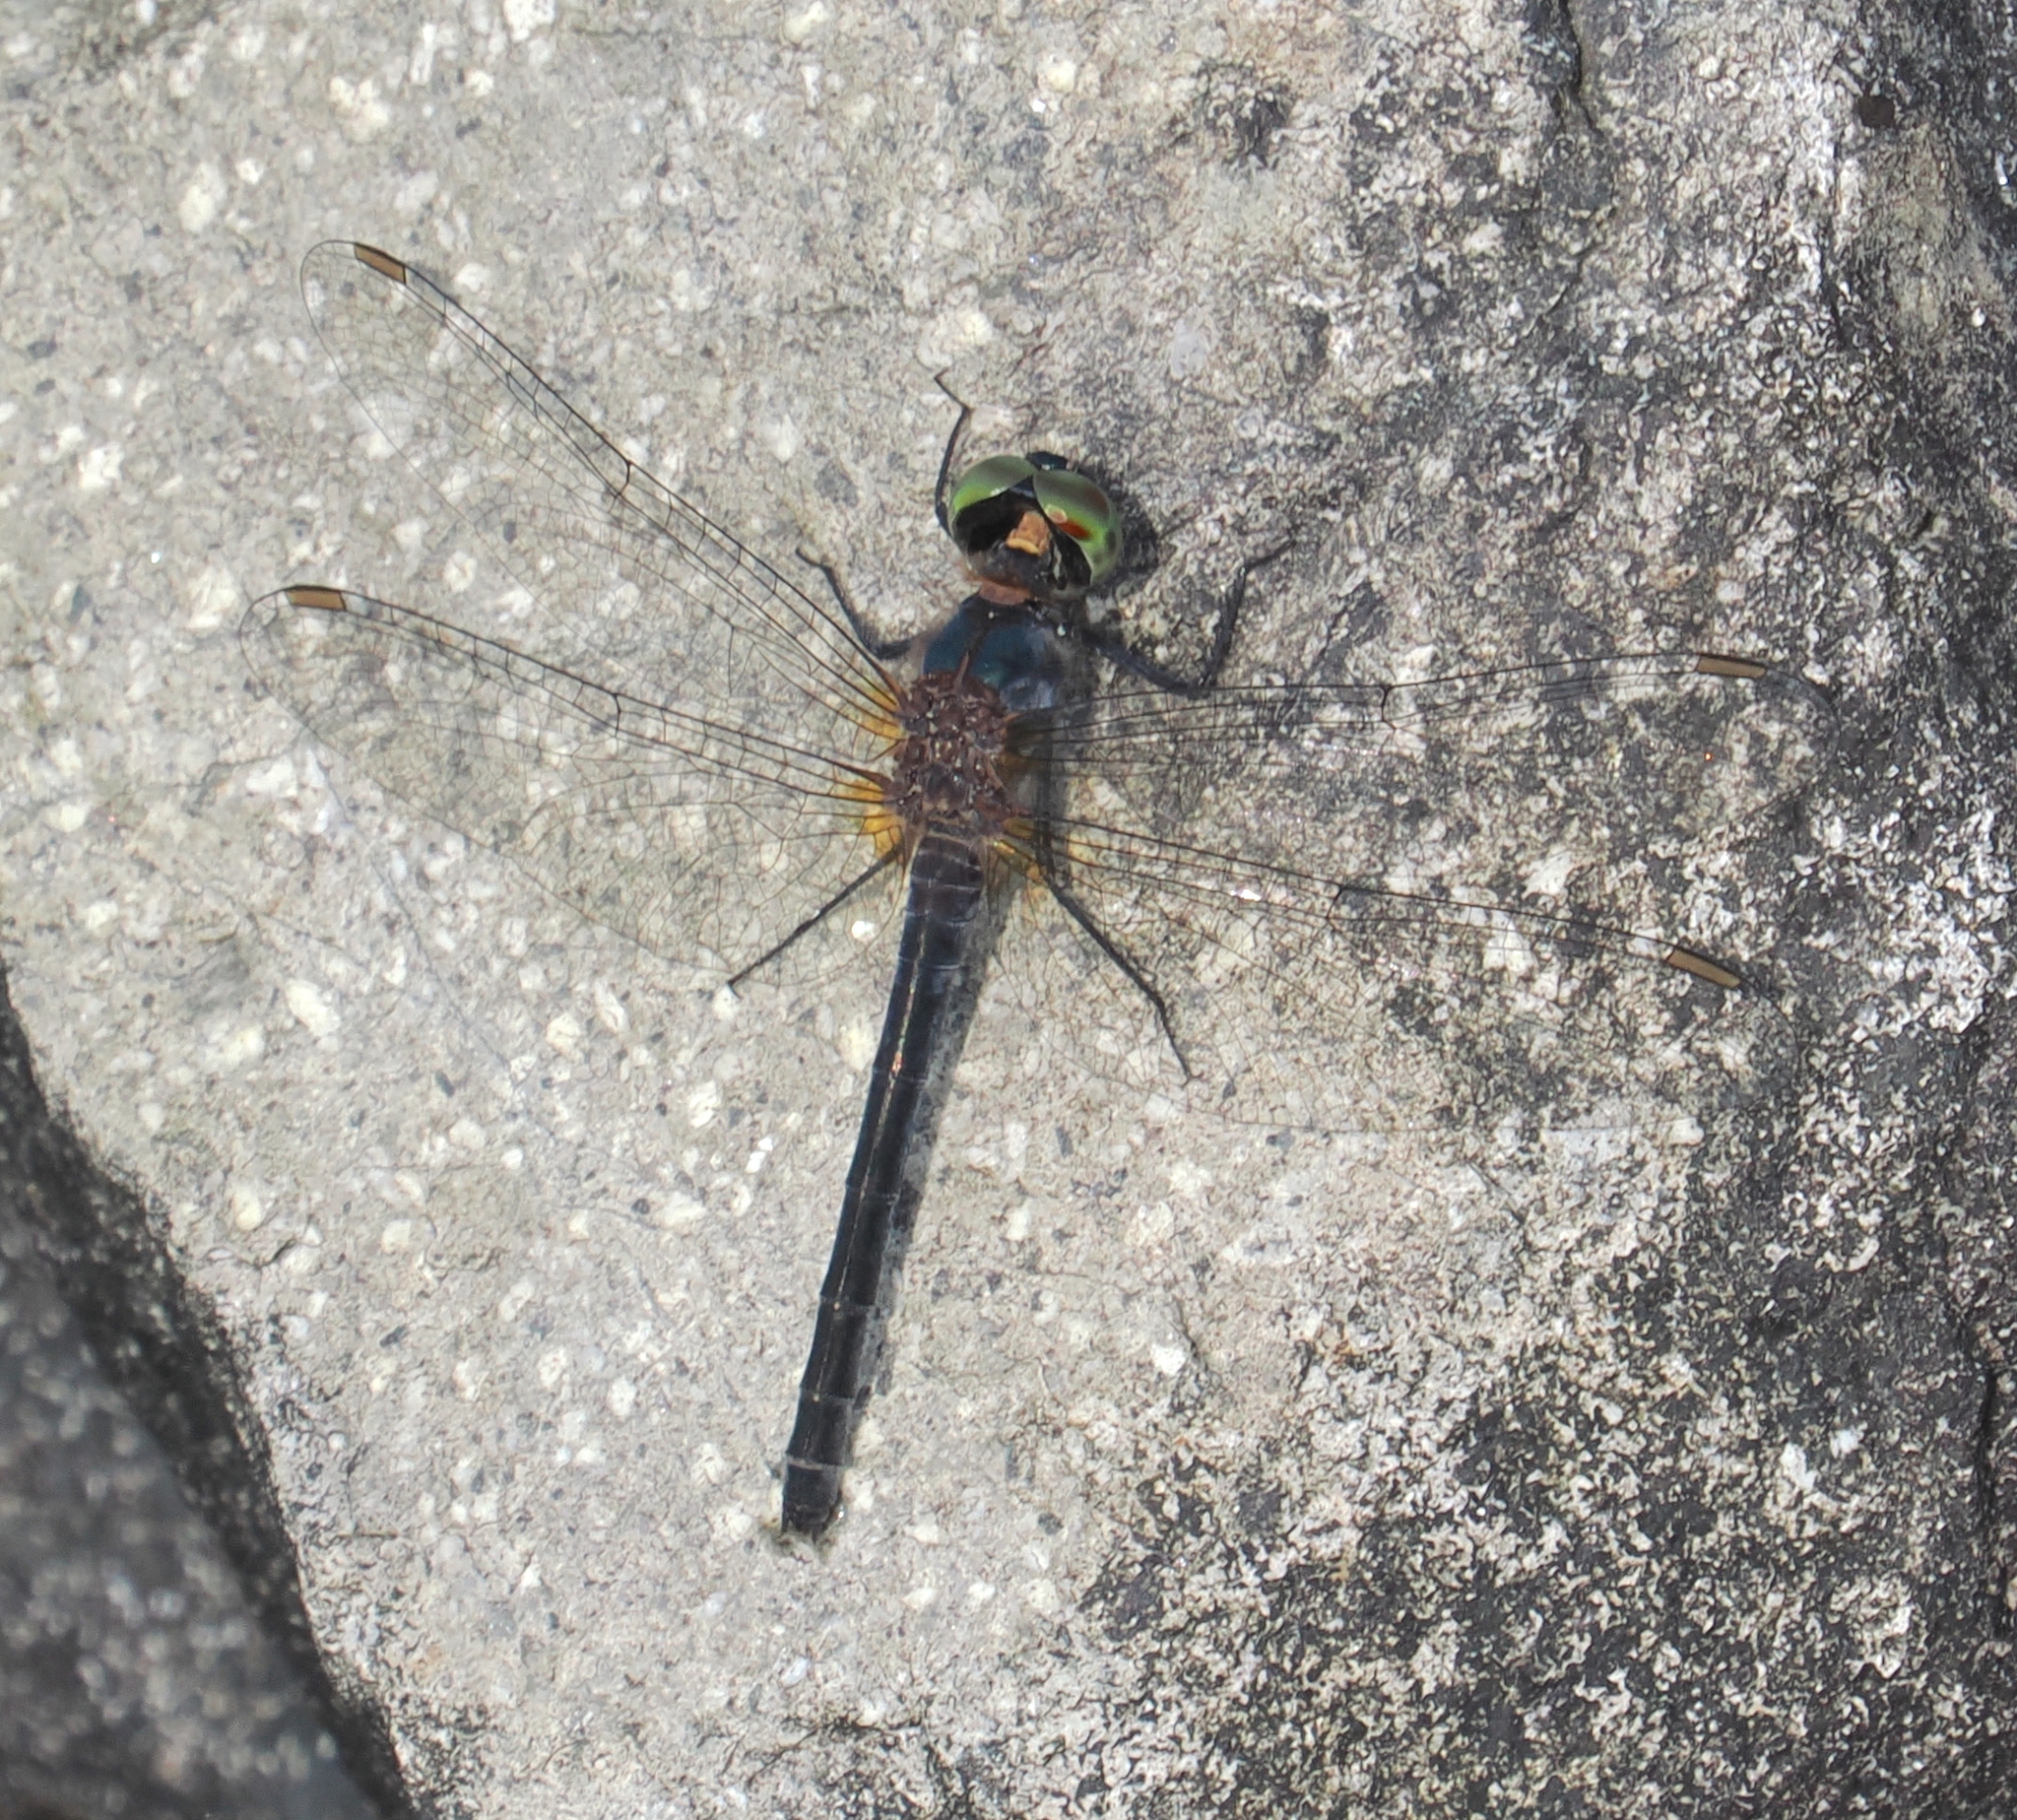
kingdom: Animalia
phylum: Arthropoda
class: Insecta
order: Odonata
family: Libellulidae
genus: Chalybeothemis
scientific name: Chalybeothemis fluviatilis
